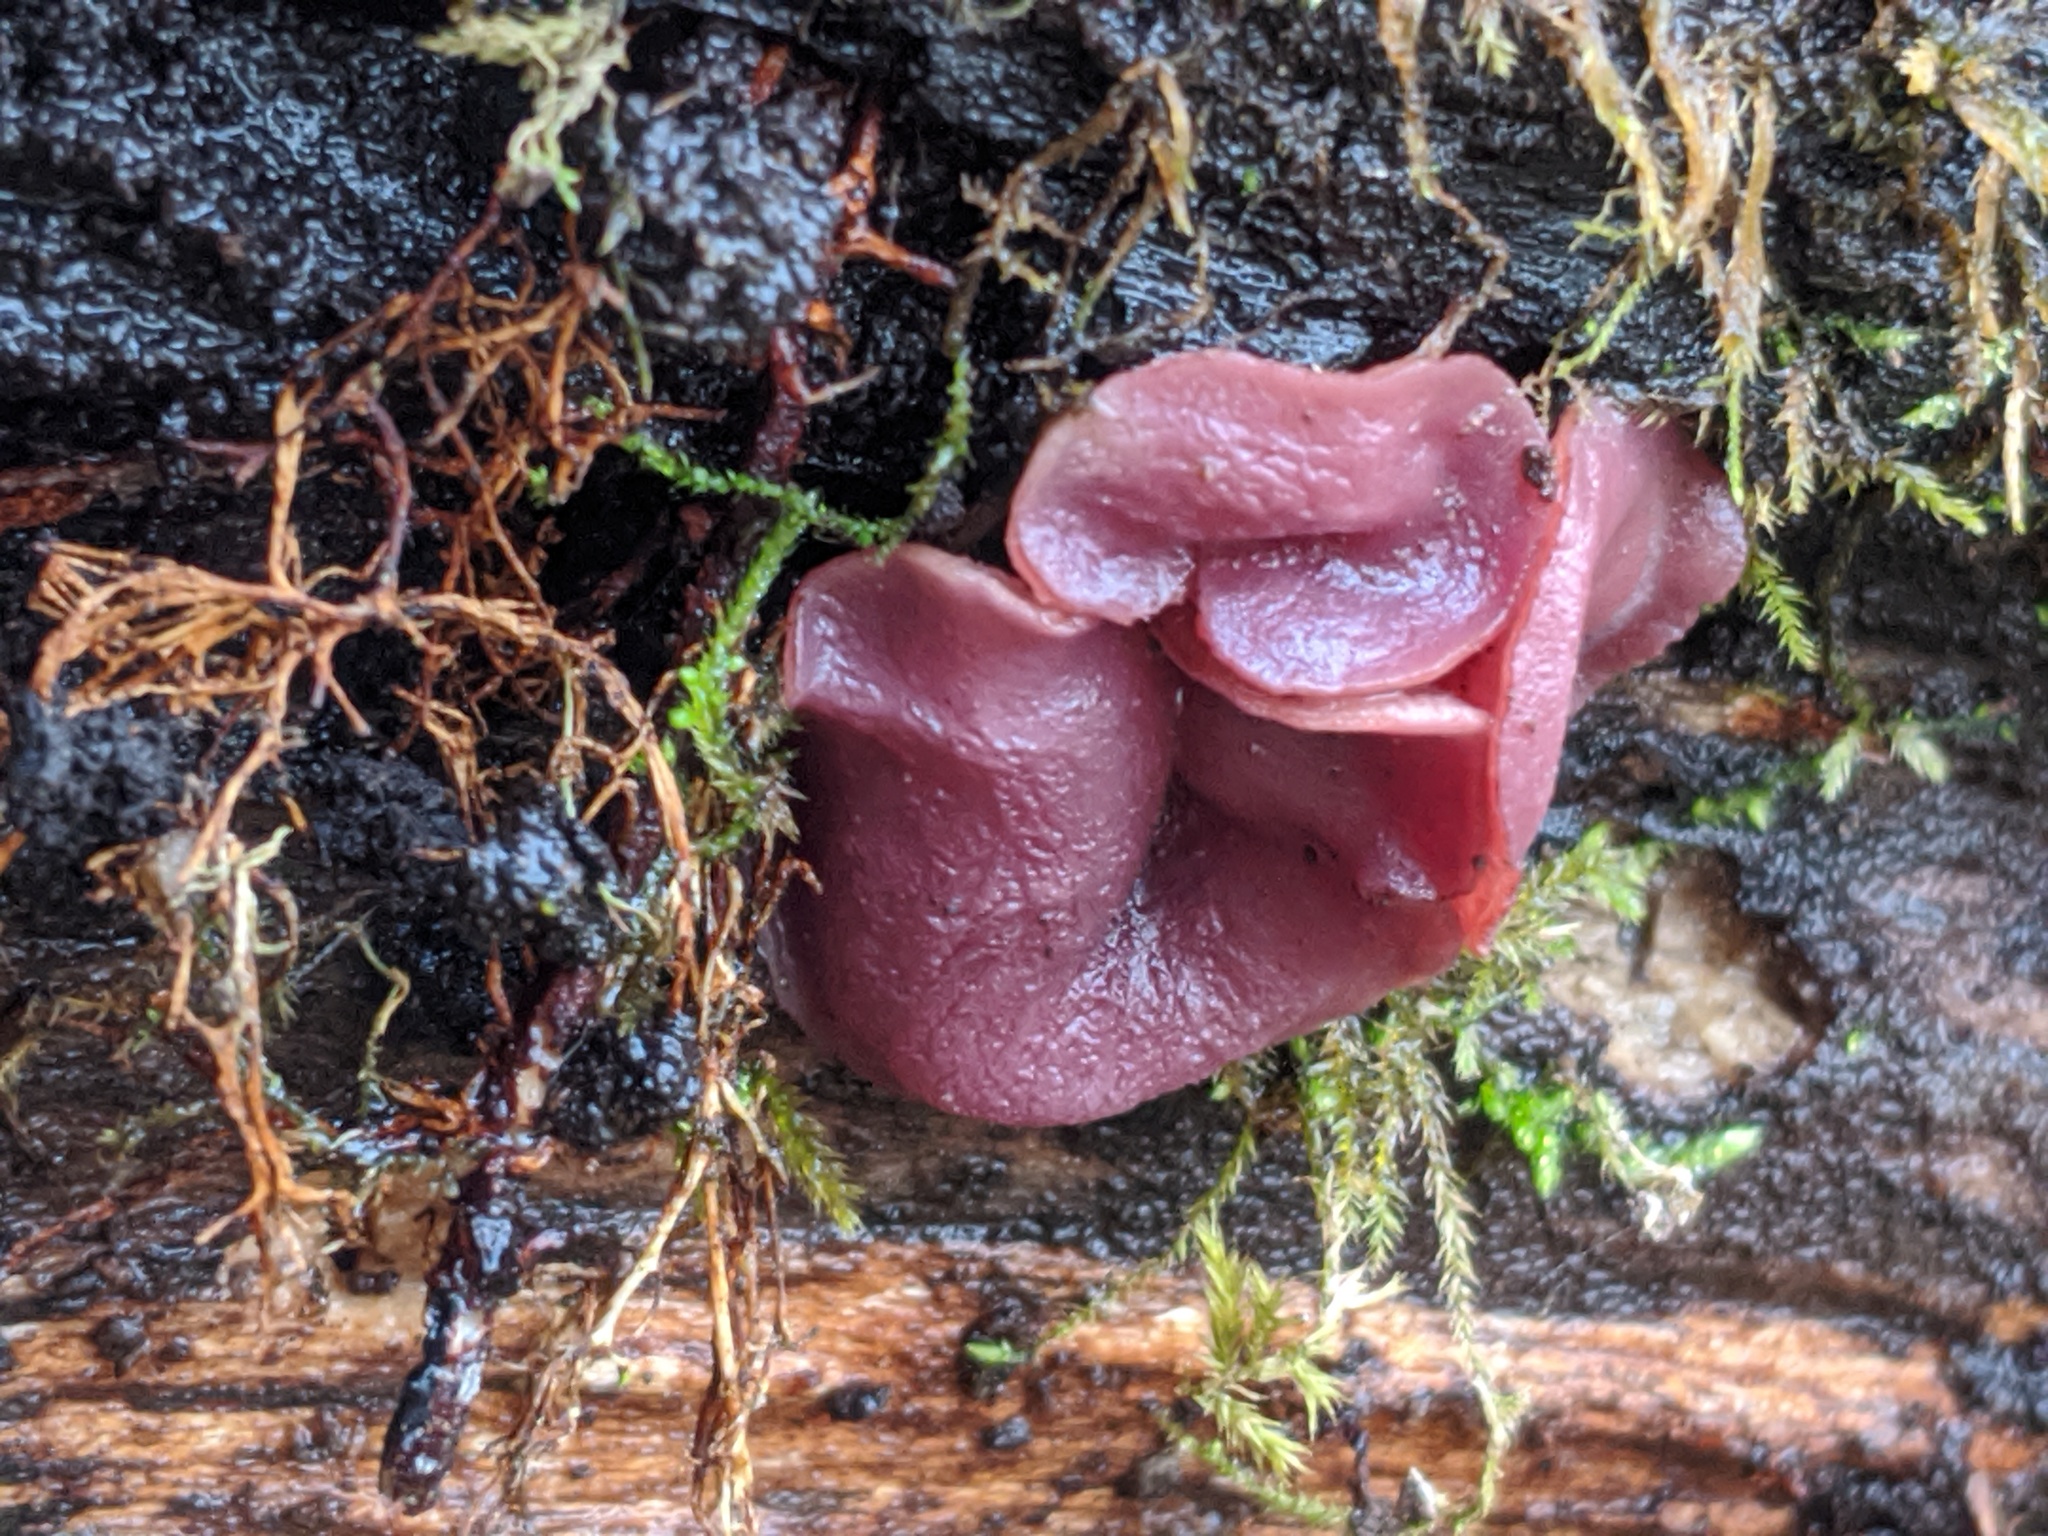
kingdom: Fungi
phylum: Ascomycota
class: Leotiomycetes
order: Helotiales
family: Gelatinodiscaceae
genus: Ascocoryne
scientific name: Ascocoryne sarcoides
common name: Purple jellydisc
